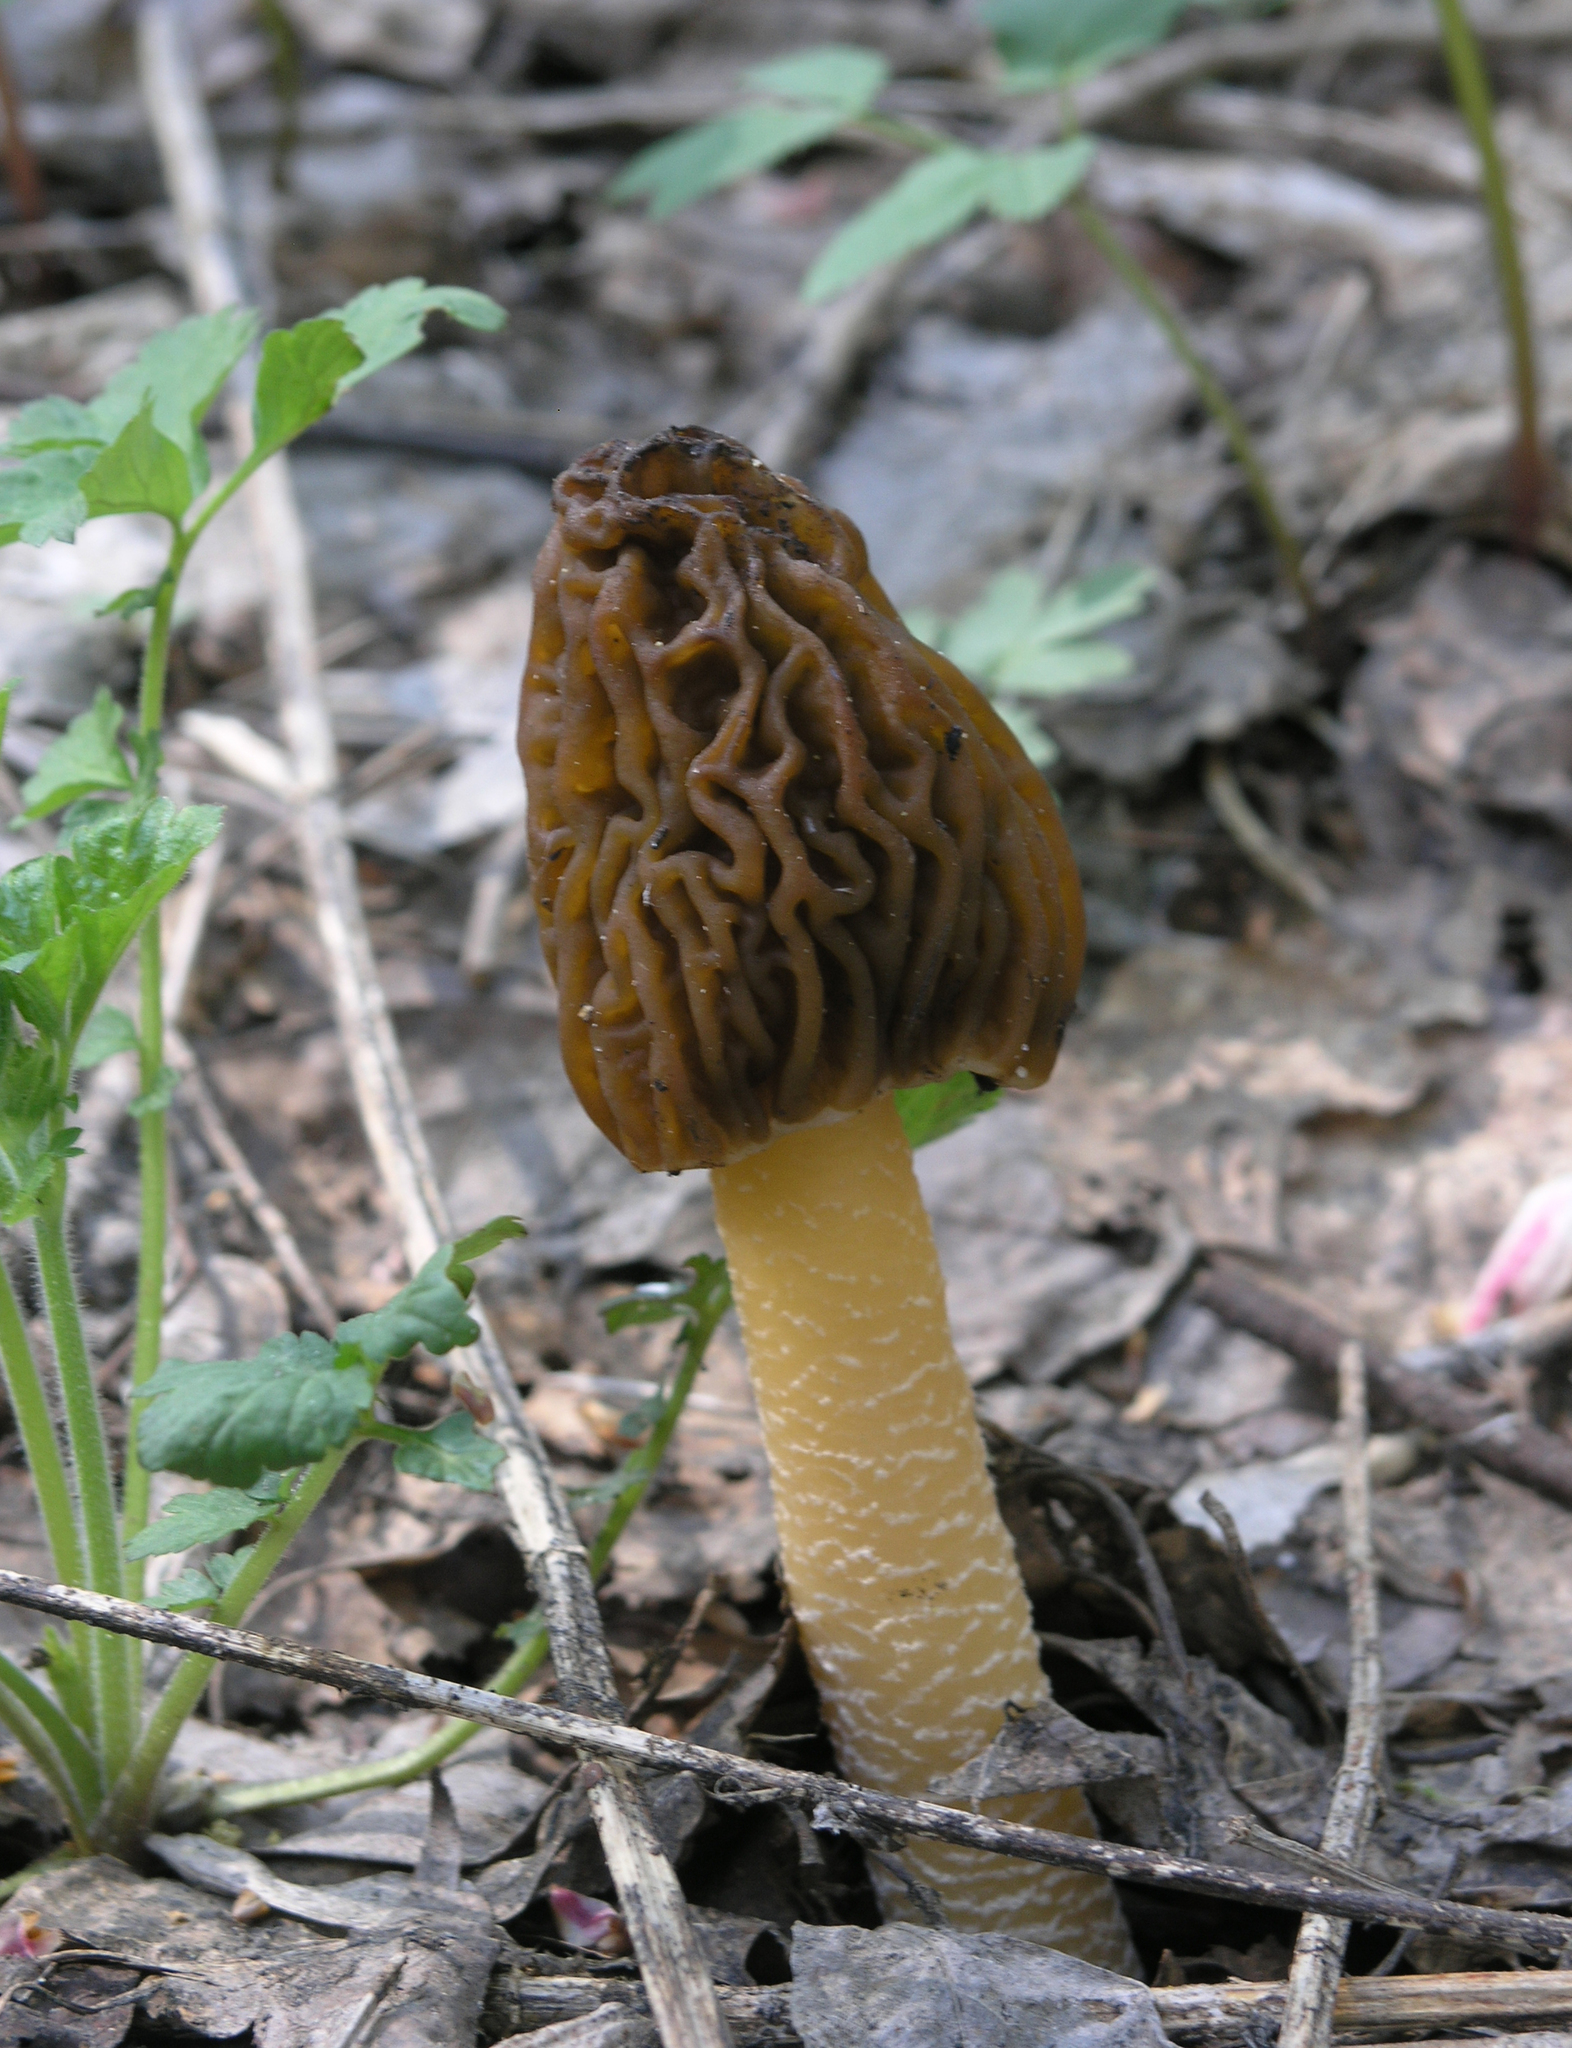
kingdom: Fungi
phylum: Ascomycota
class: Pezizomycetes
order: Pezizales
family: Morchellaceae
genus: Verpa
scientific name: Verpa bohemica
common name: Wrinkled thimble morel
